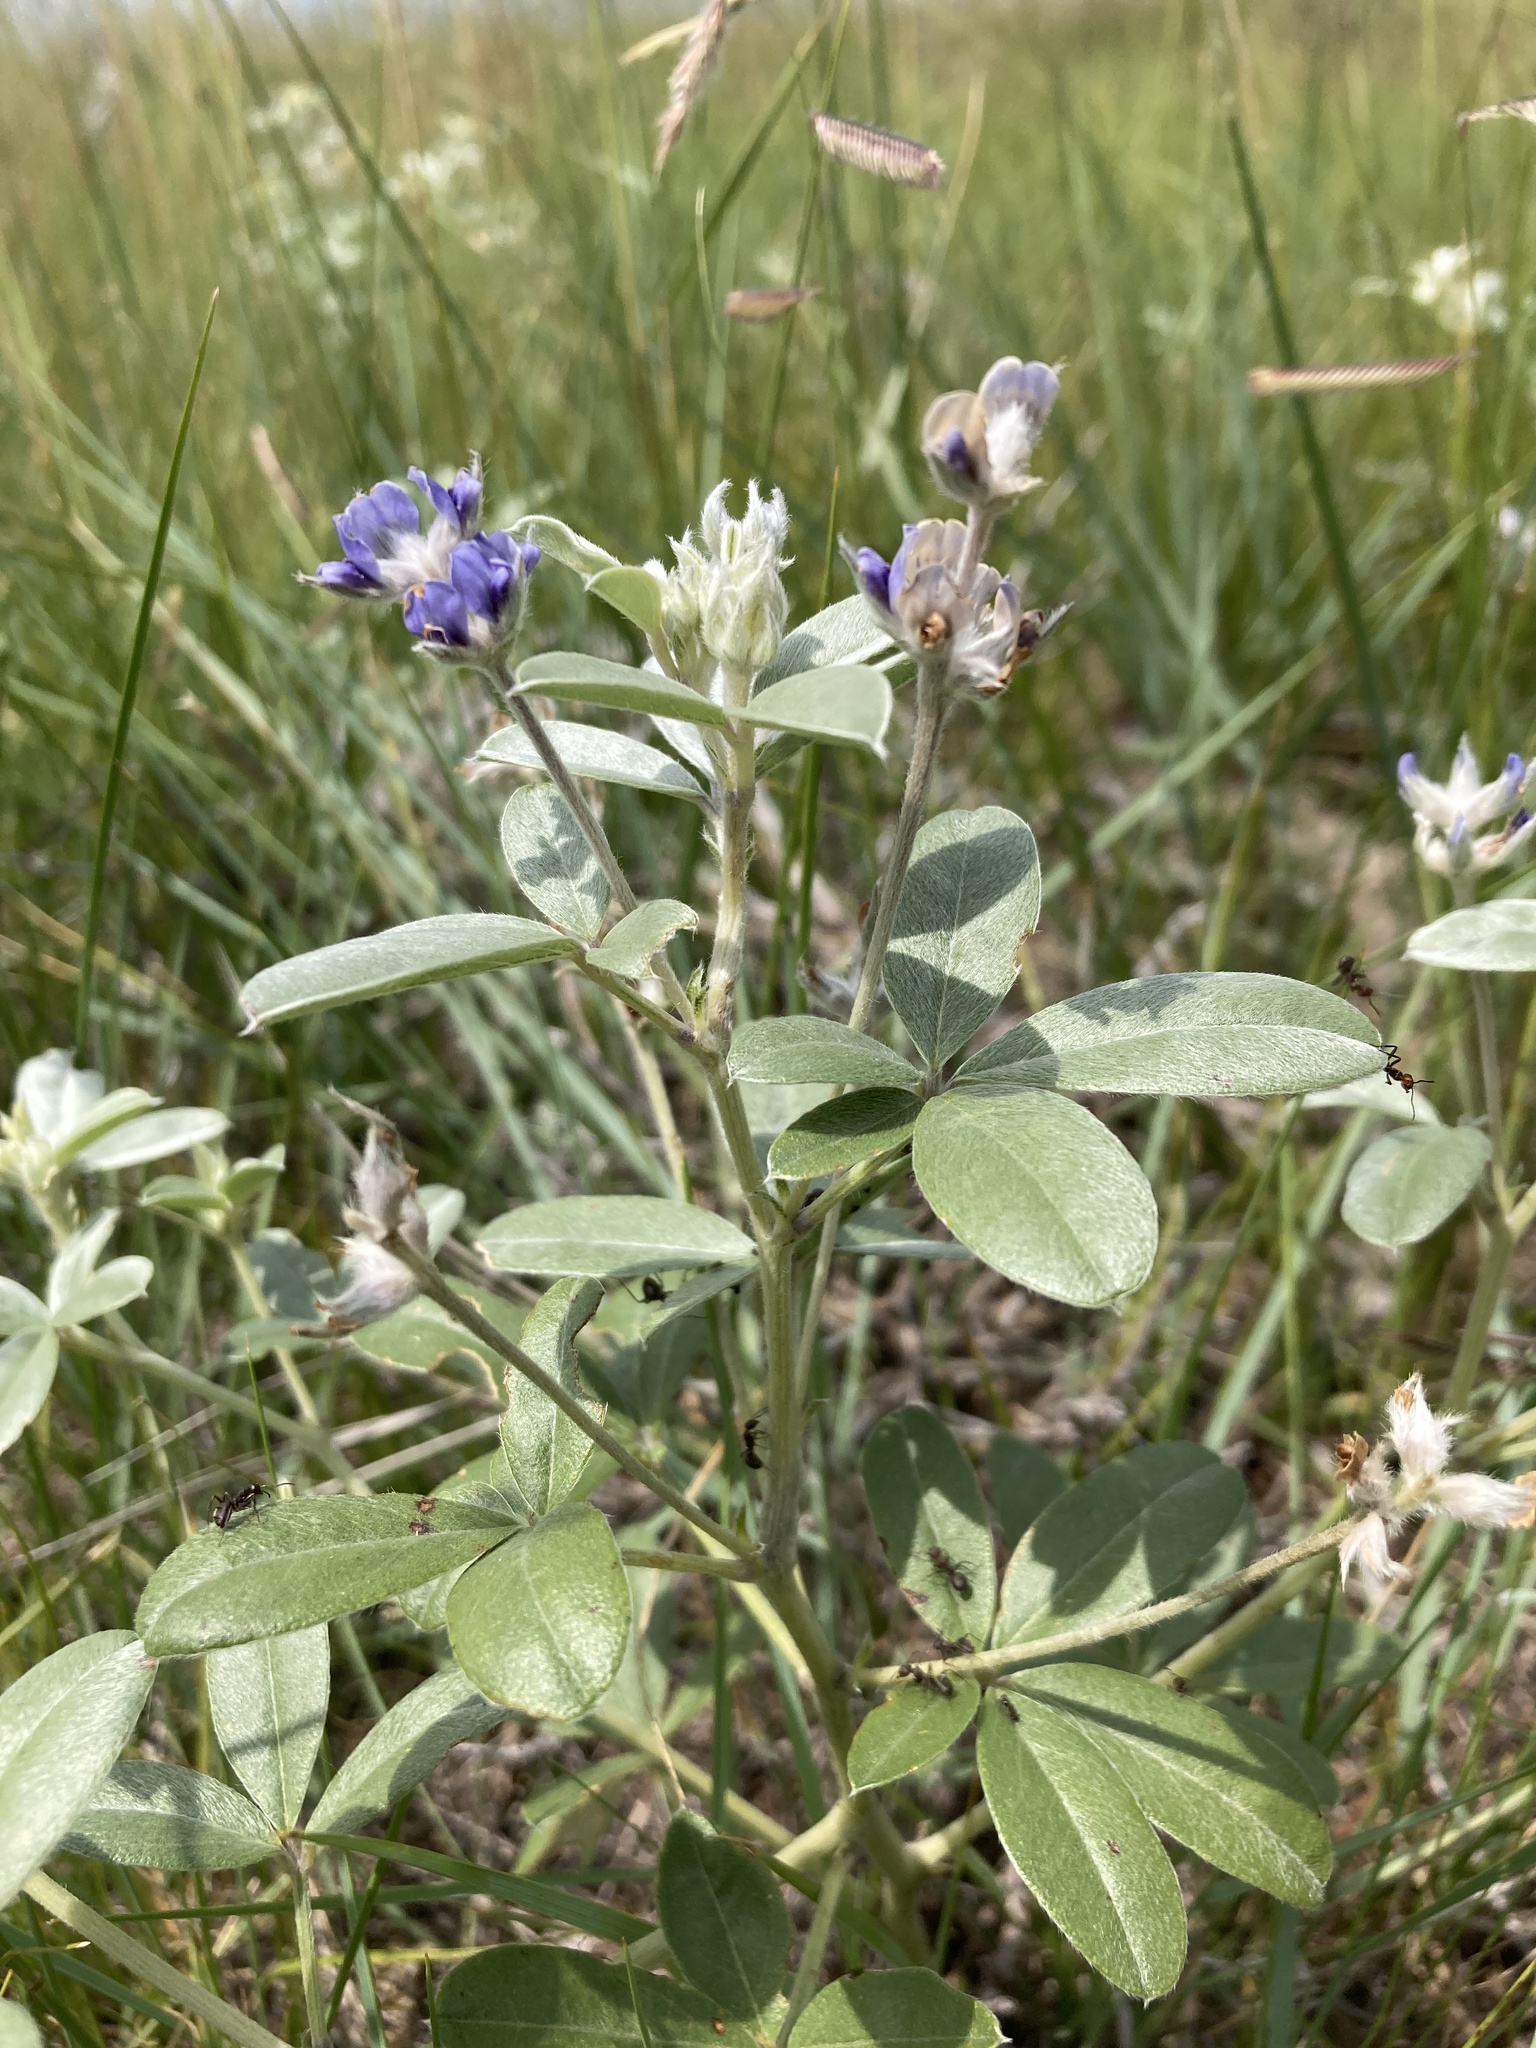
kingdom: Plantae
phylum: Tracheophyta
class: Magnoliopsida
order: Fabales
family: Fabaceae
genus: Pediomelum
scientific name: Pediomelum argophyllum
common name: Silver-leaved indian breadroot
